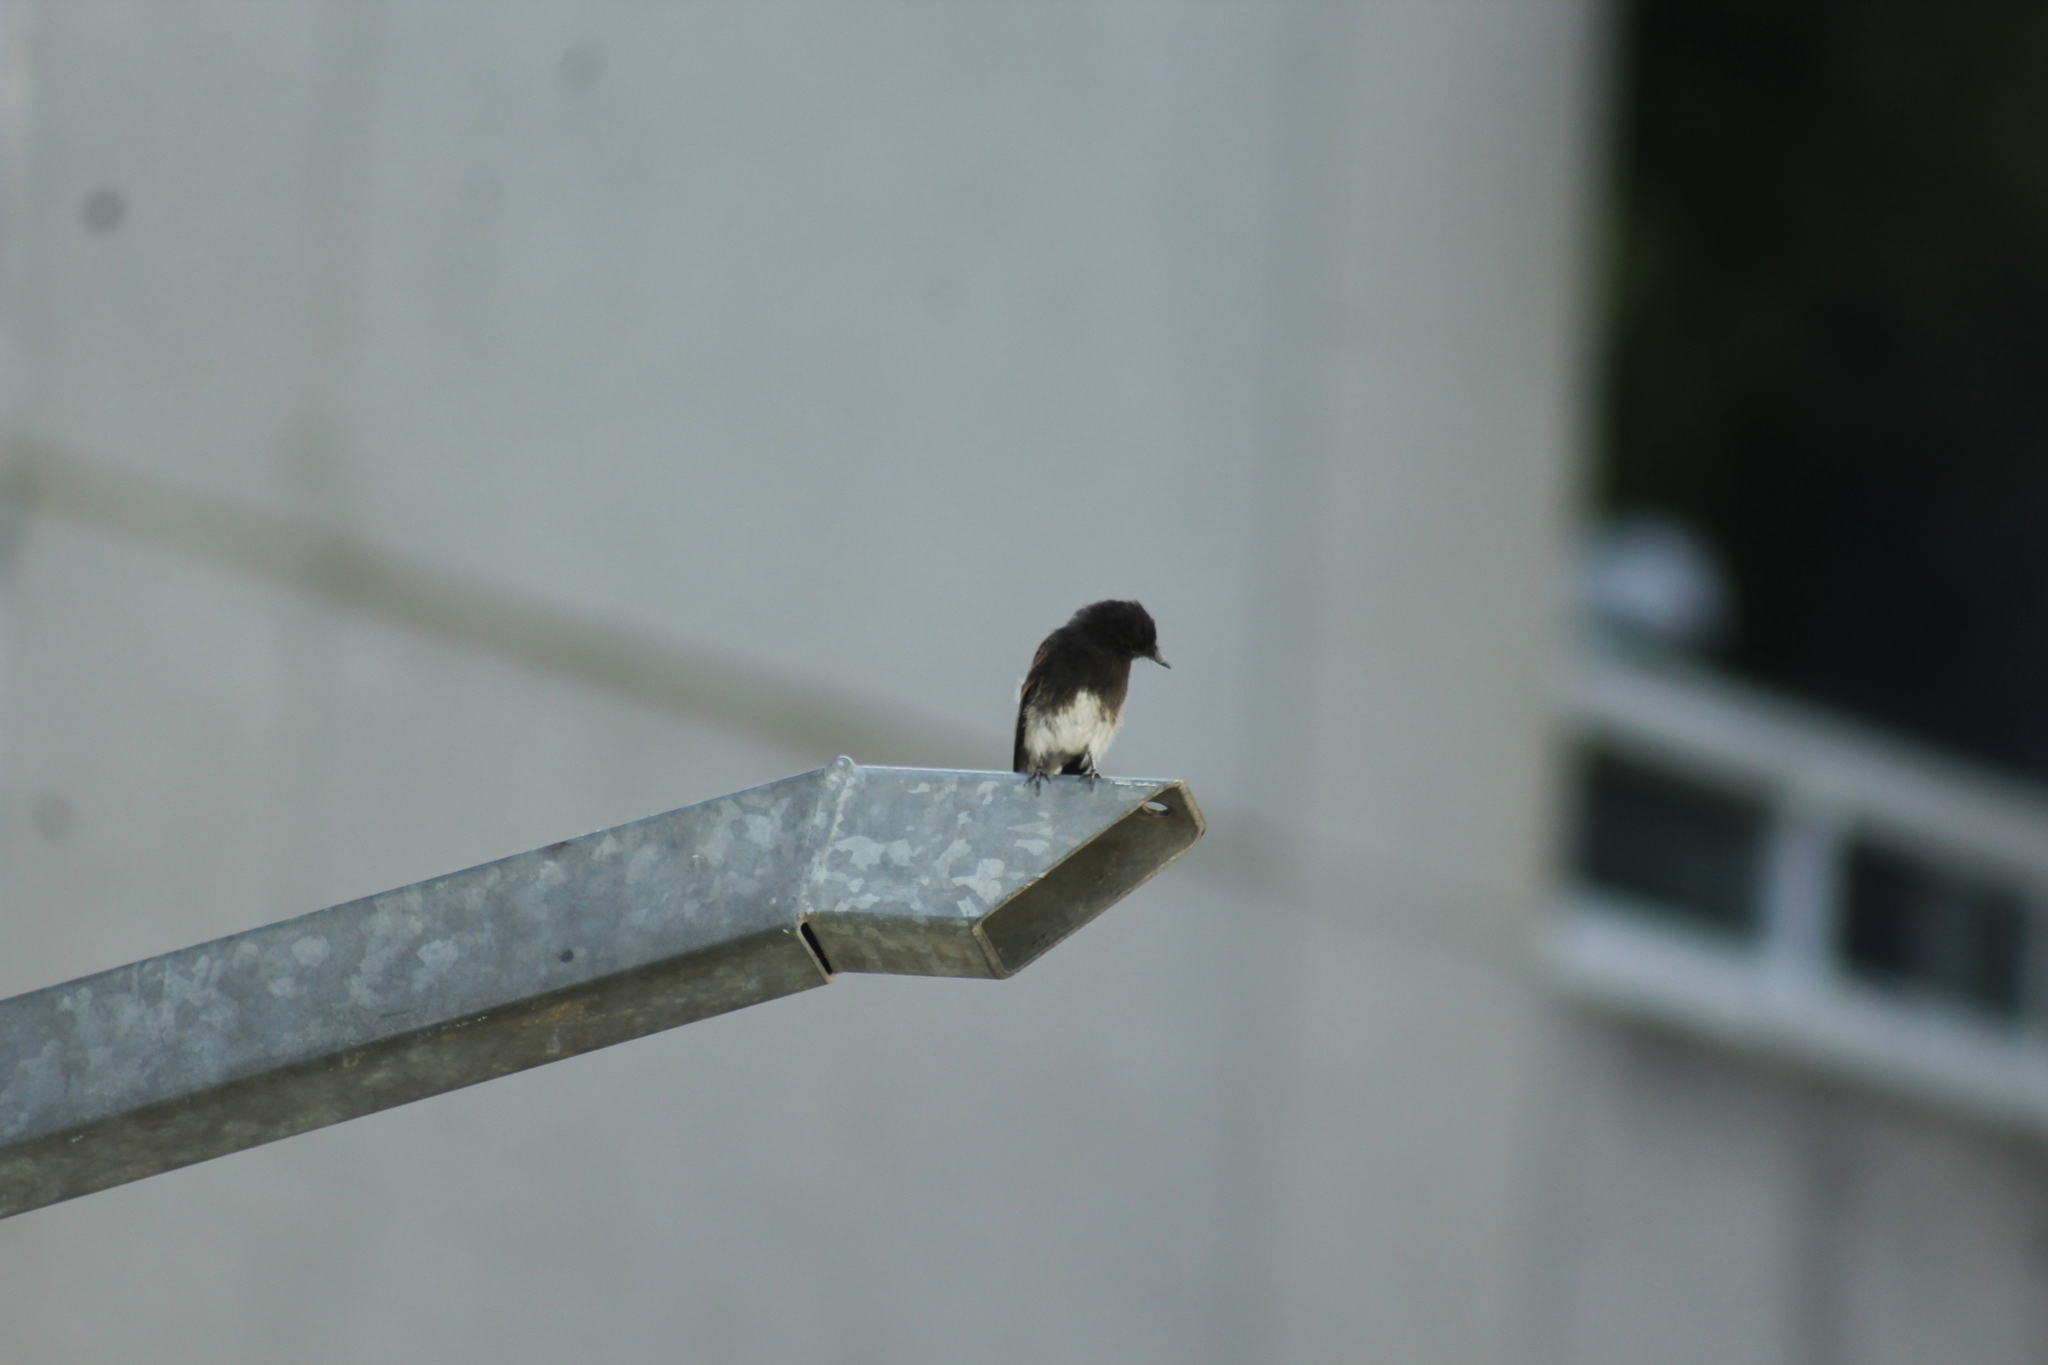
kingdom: Animalia
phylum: Chordata
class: Aves
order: Passeriformes
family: Tyrannidae
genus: Sayornis
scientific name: Sayornis nigricans
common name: Black phoebe
